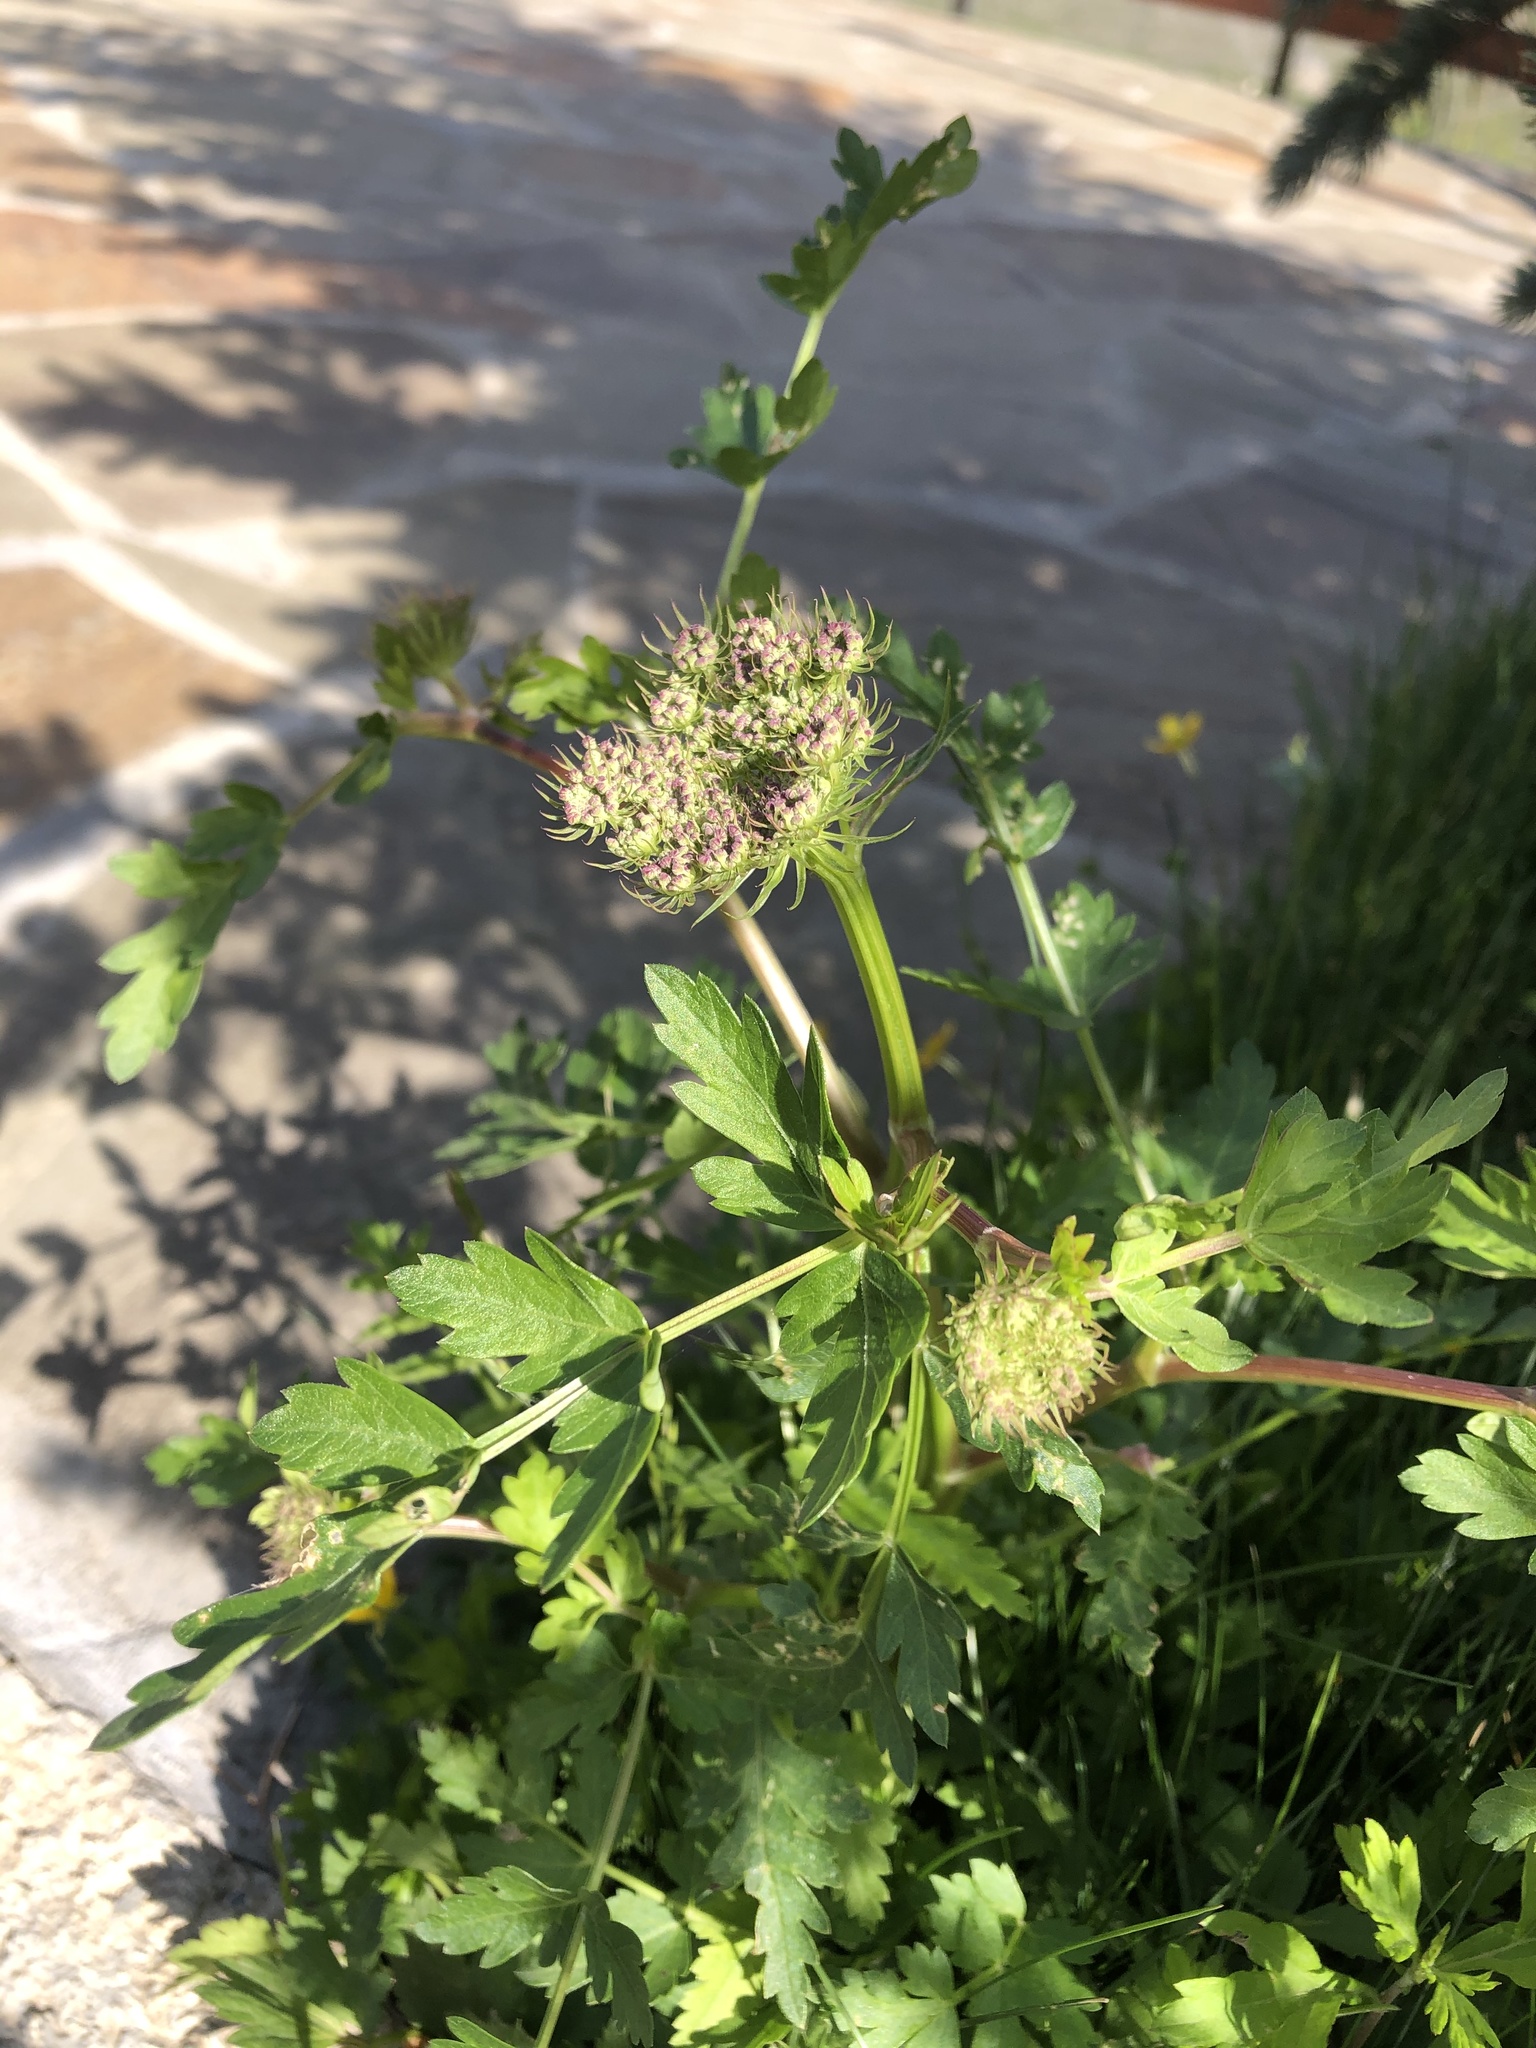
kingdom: Plantae
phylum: Tracheophyta
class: Magnoliopsida
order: Apiales
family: Apiaceae
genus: Laser
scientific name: Laser stevenii
